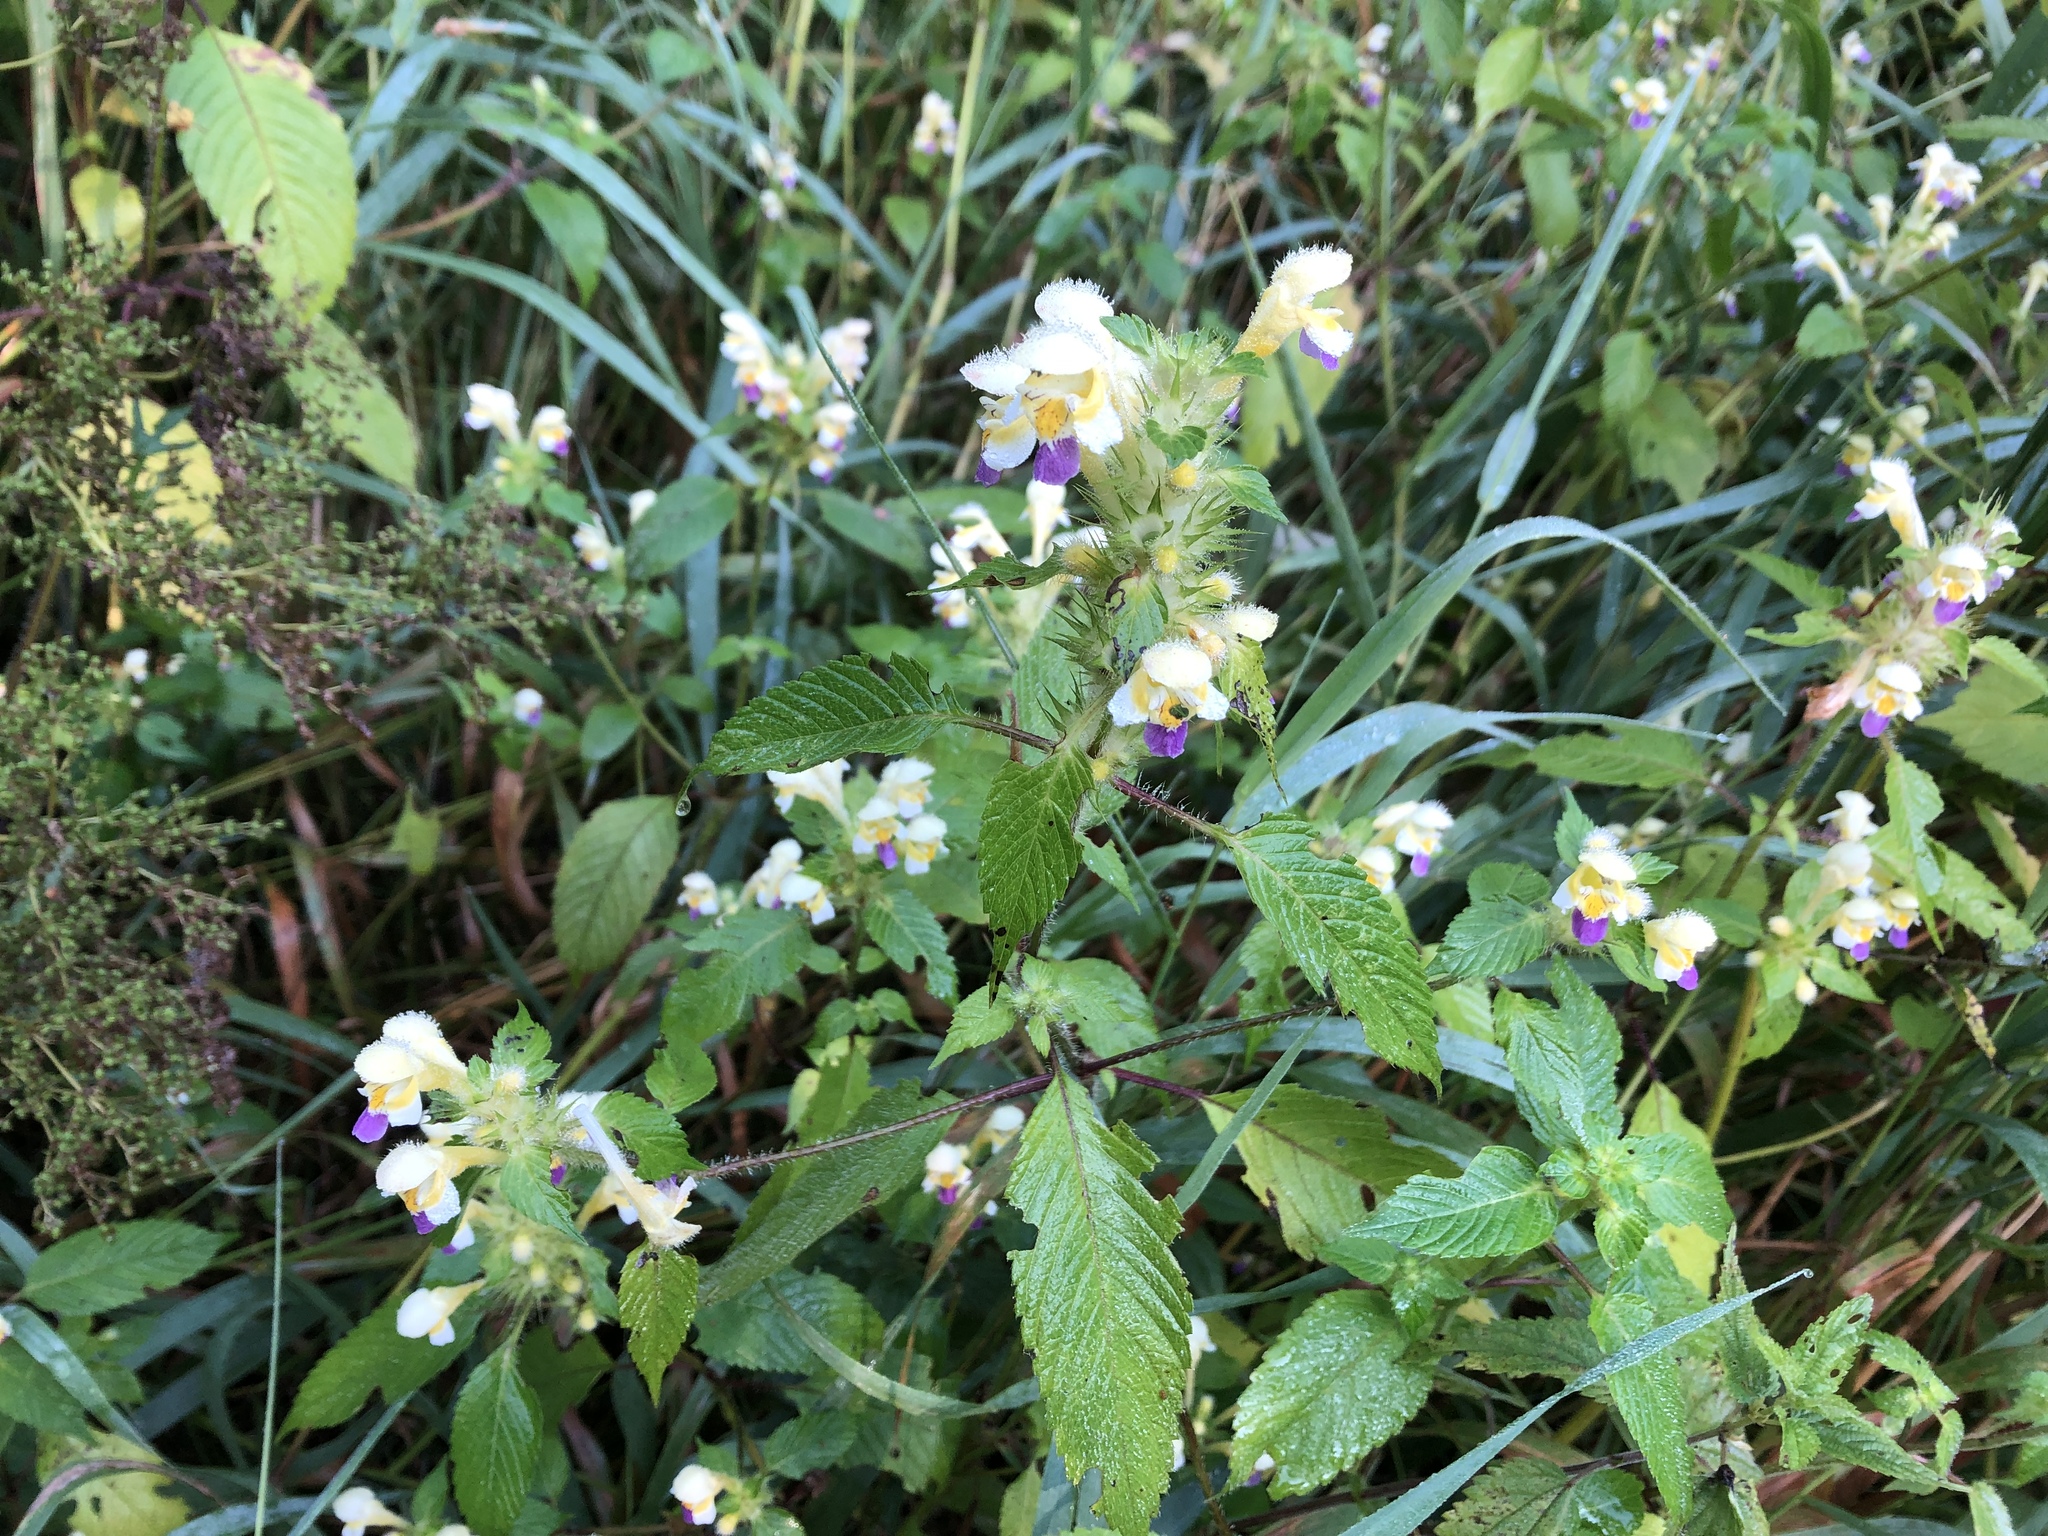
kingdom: Plantae
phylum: Tracheophyta
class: Magnoliopsida
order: Lamiales
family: Lamiaceae
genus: Galeopsis
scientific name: Galeopsis speciosa
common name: Large-flowered hemp-nettle
